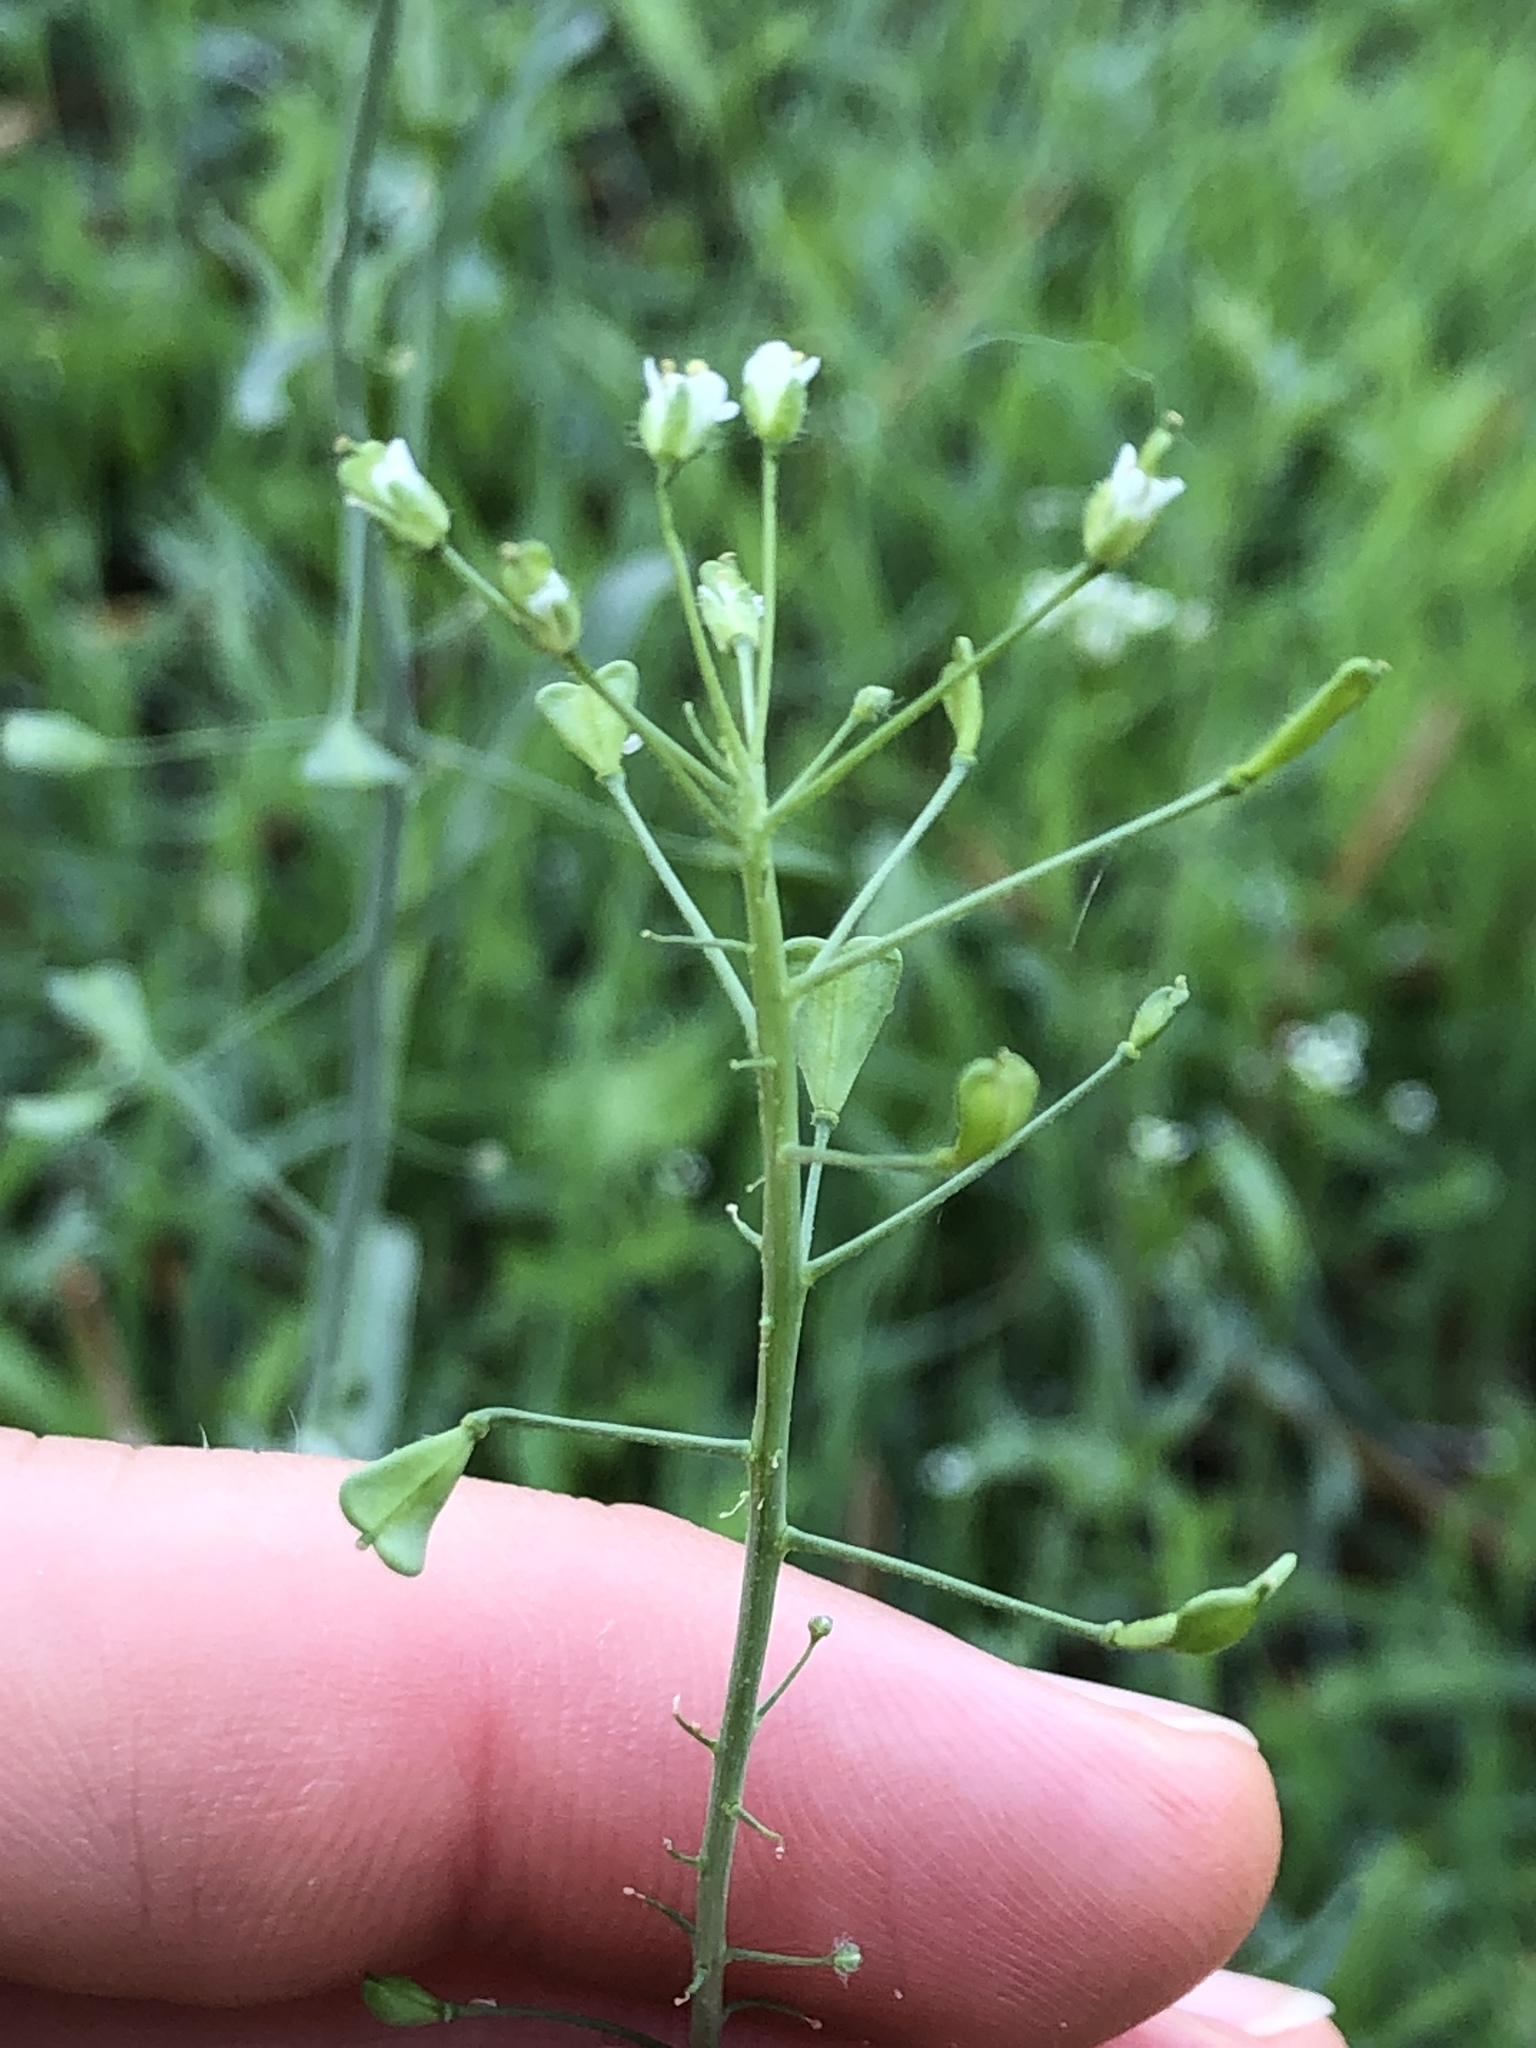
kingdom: Plantae
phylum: Tracheophyta
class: Magnoliopsida
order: Brassicales
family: Brassicaceae
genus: Capsella
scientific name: Capsella bursa-pastoris
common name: Shepherd's purse
